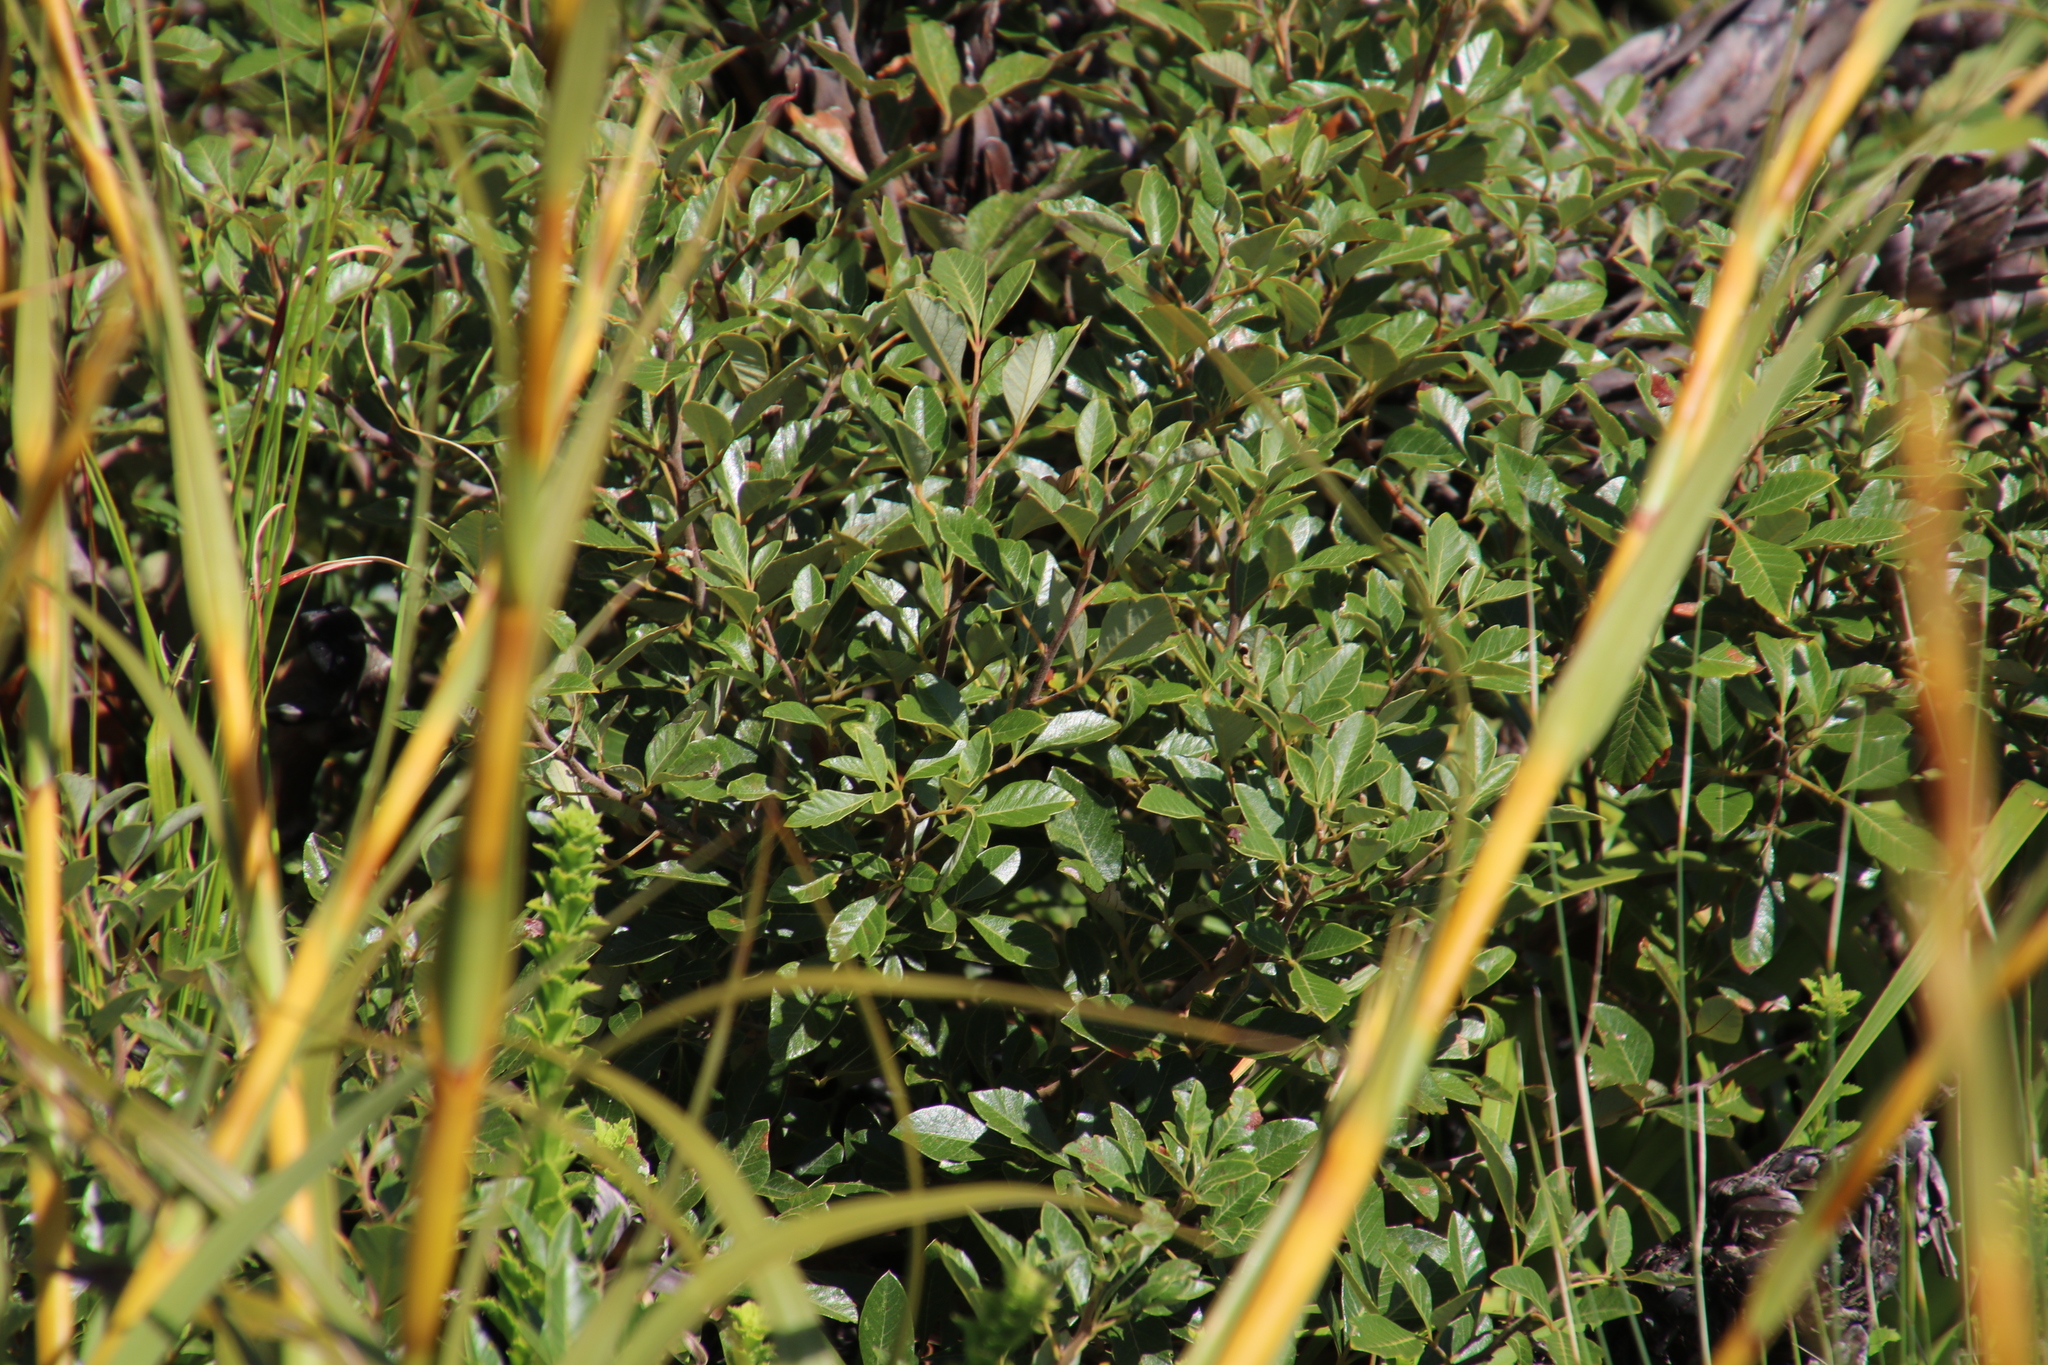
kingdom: Plantae
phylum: Tracheophyta
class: Magnoliopsida
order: Sapindales
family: Anacardiaceae
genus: Searsia
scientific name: Searsia tomentosa
